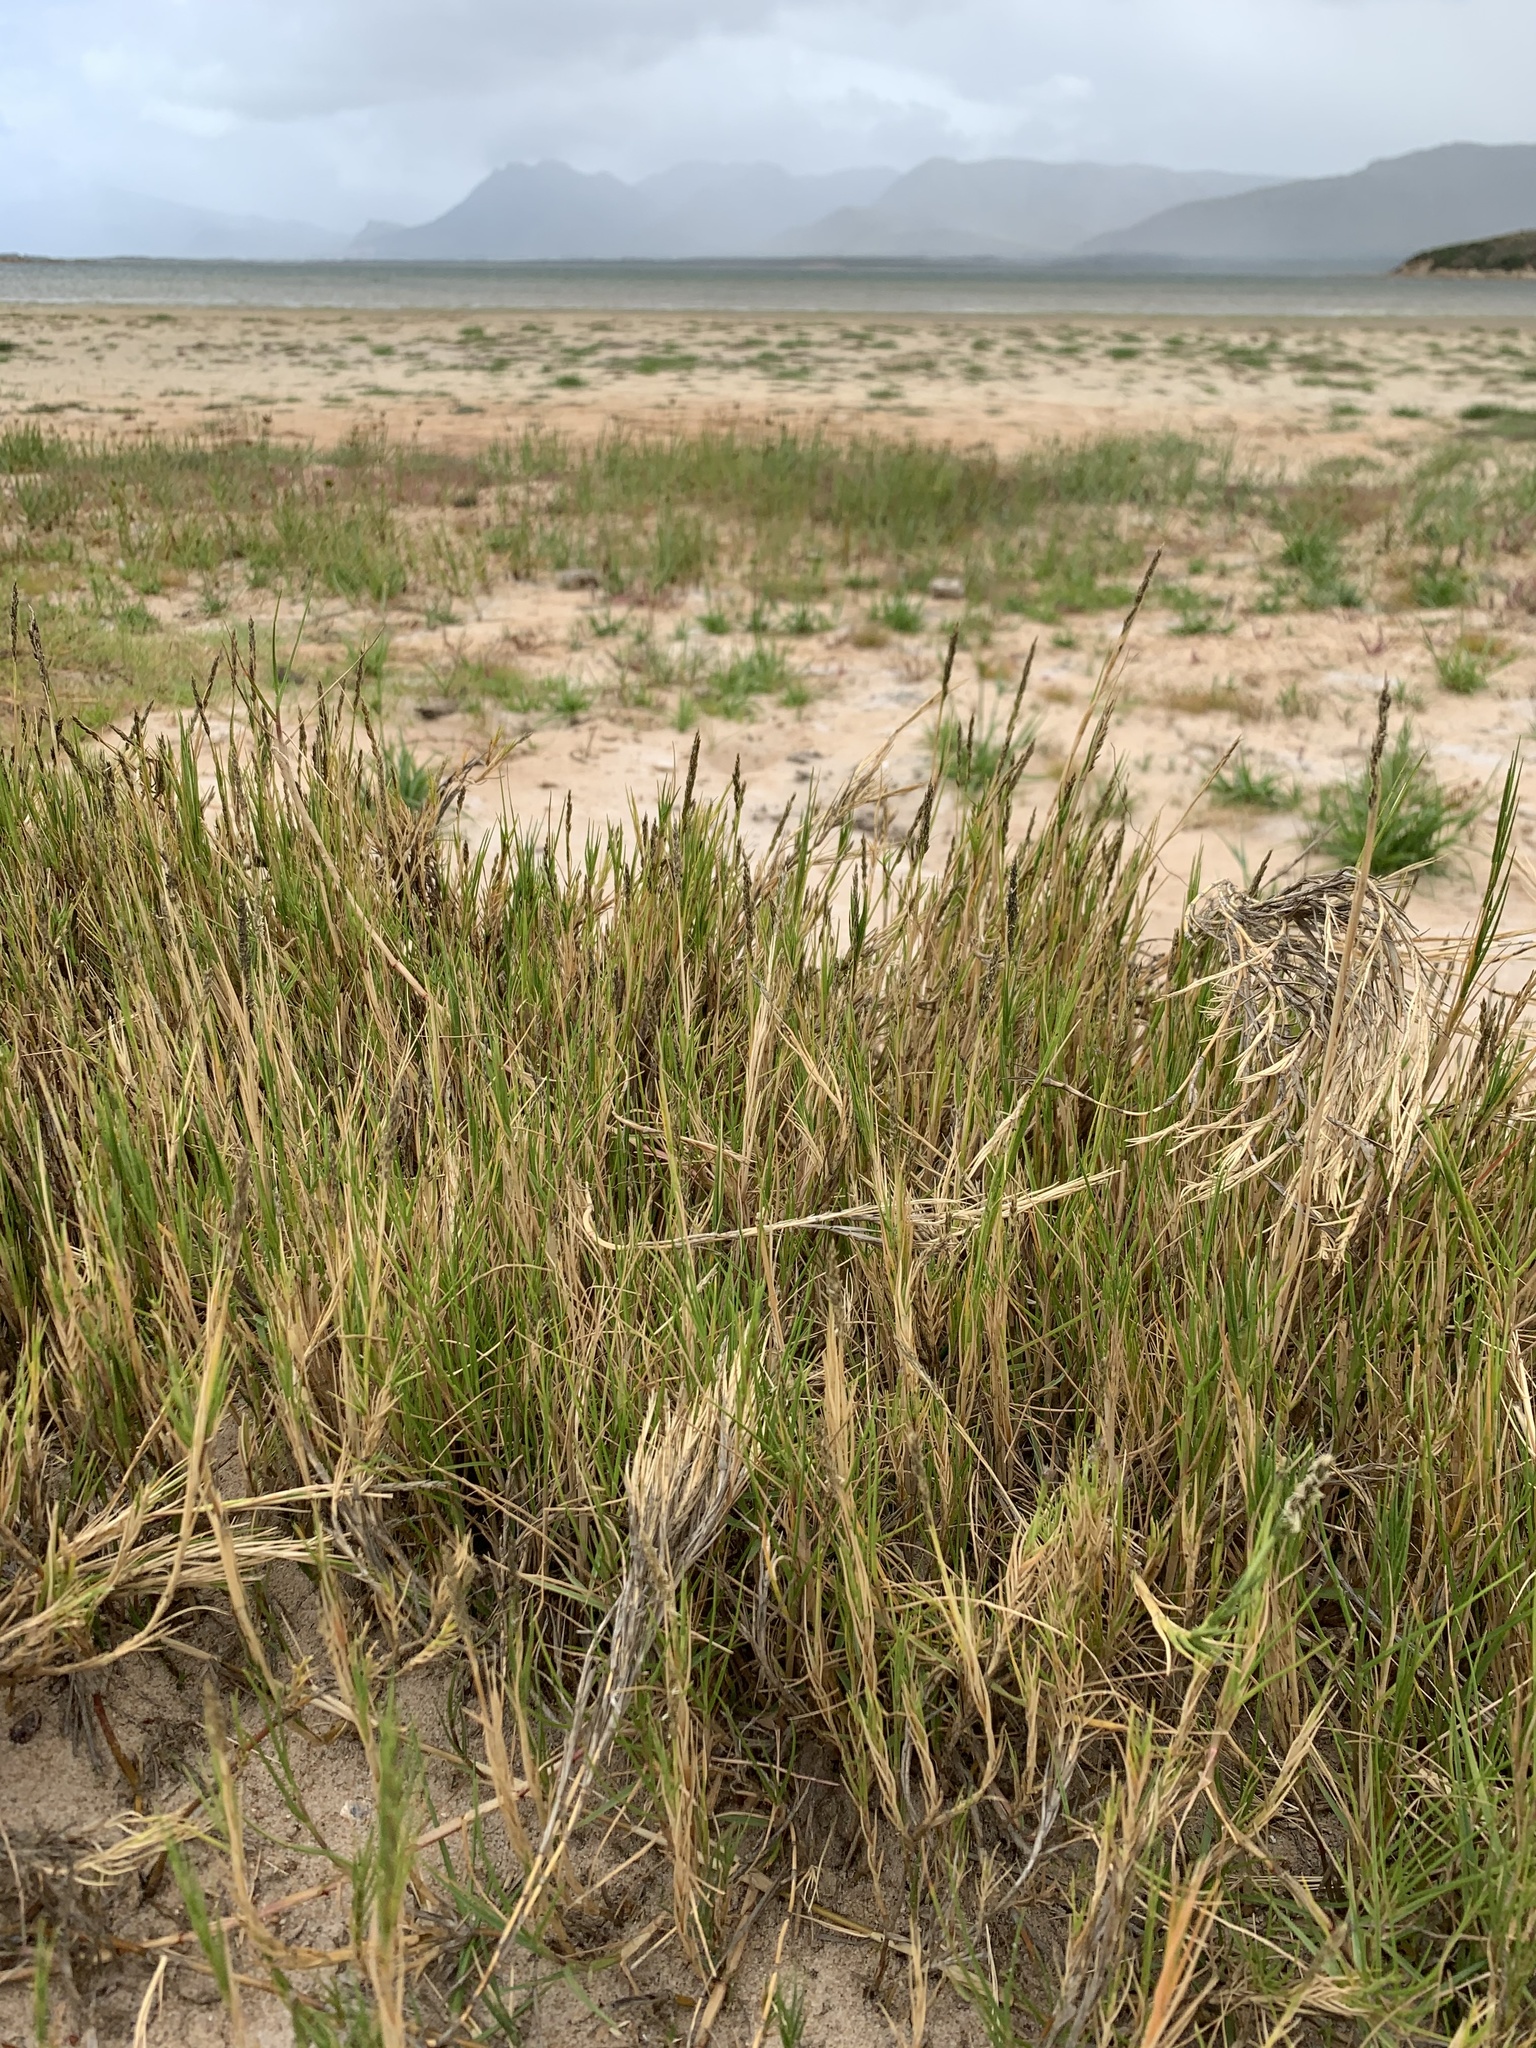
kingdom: Plantae
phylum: Tracheophyta
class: Liliopsida
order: Poales
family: Poaceae
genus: Sporobolus
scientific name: Sporobolus virginicus
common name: Beach dropseed
